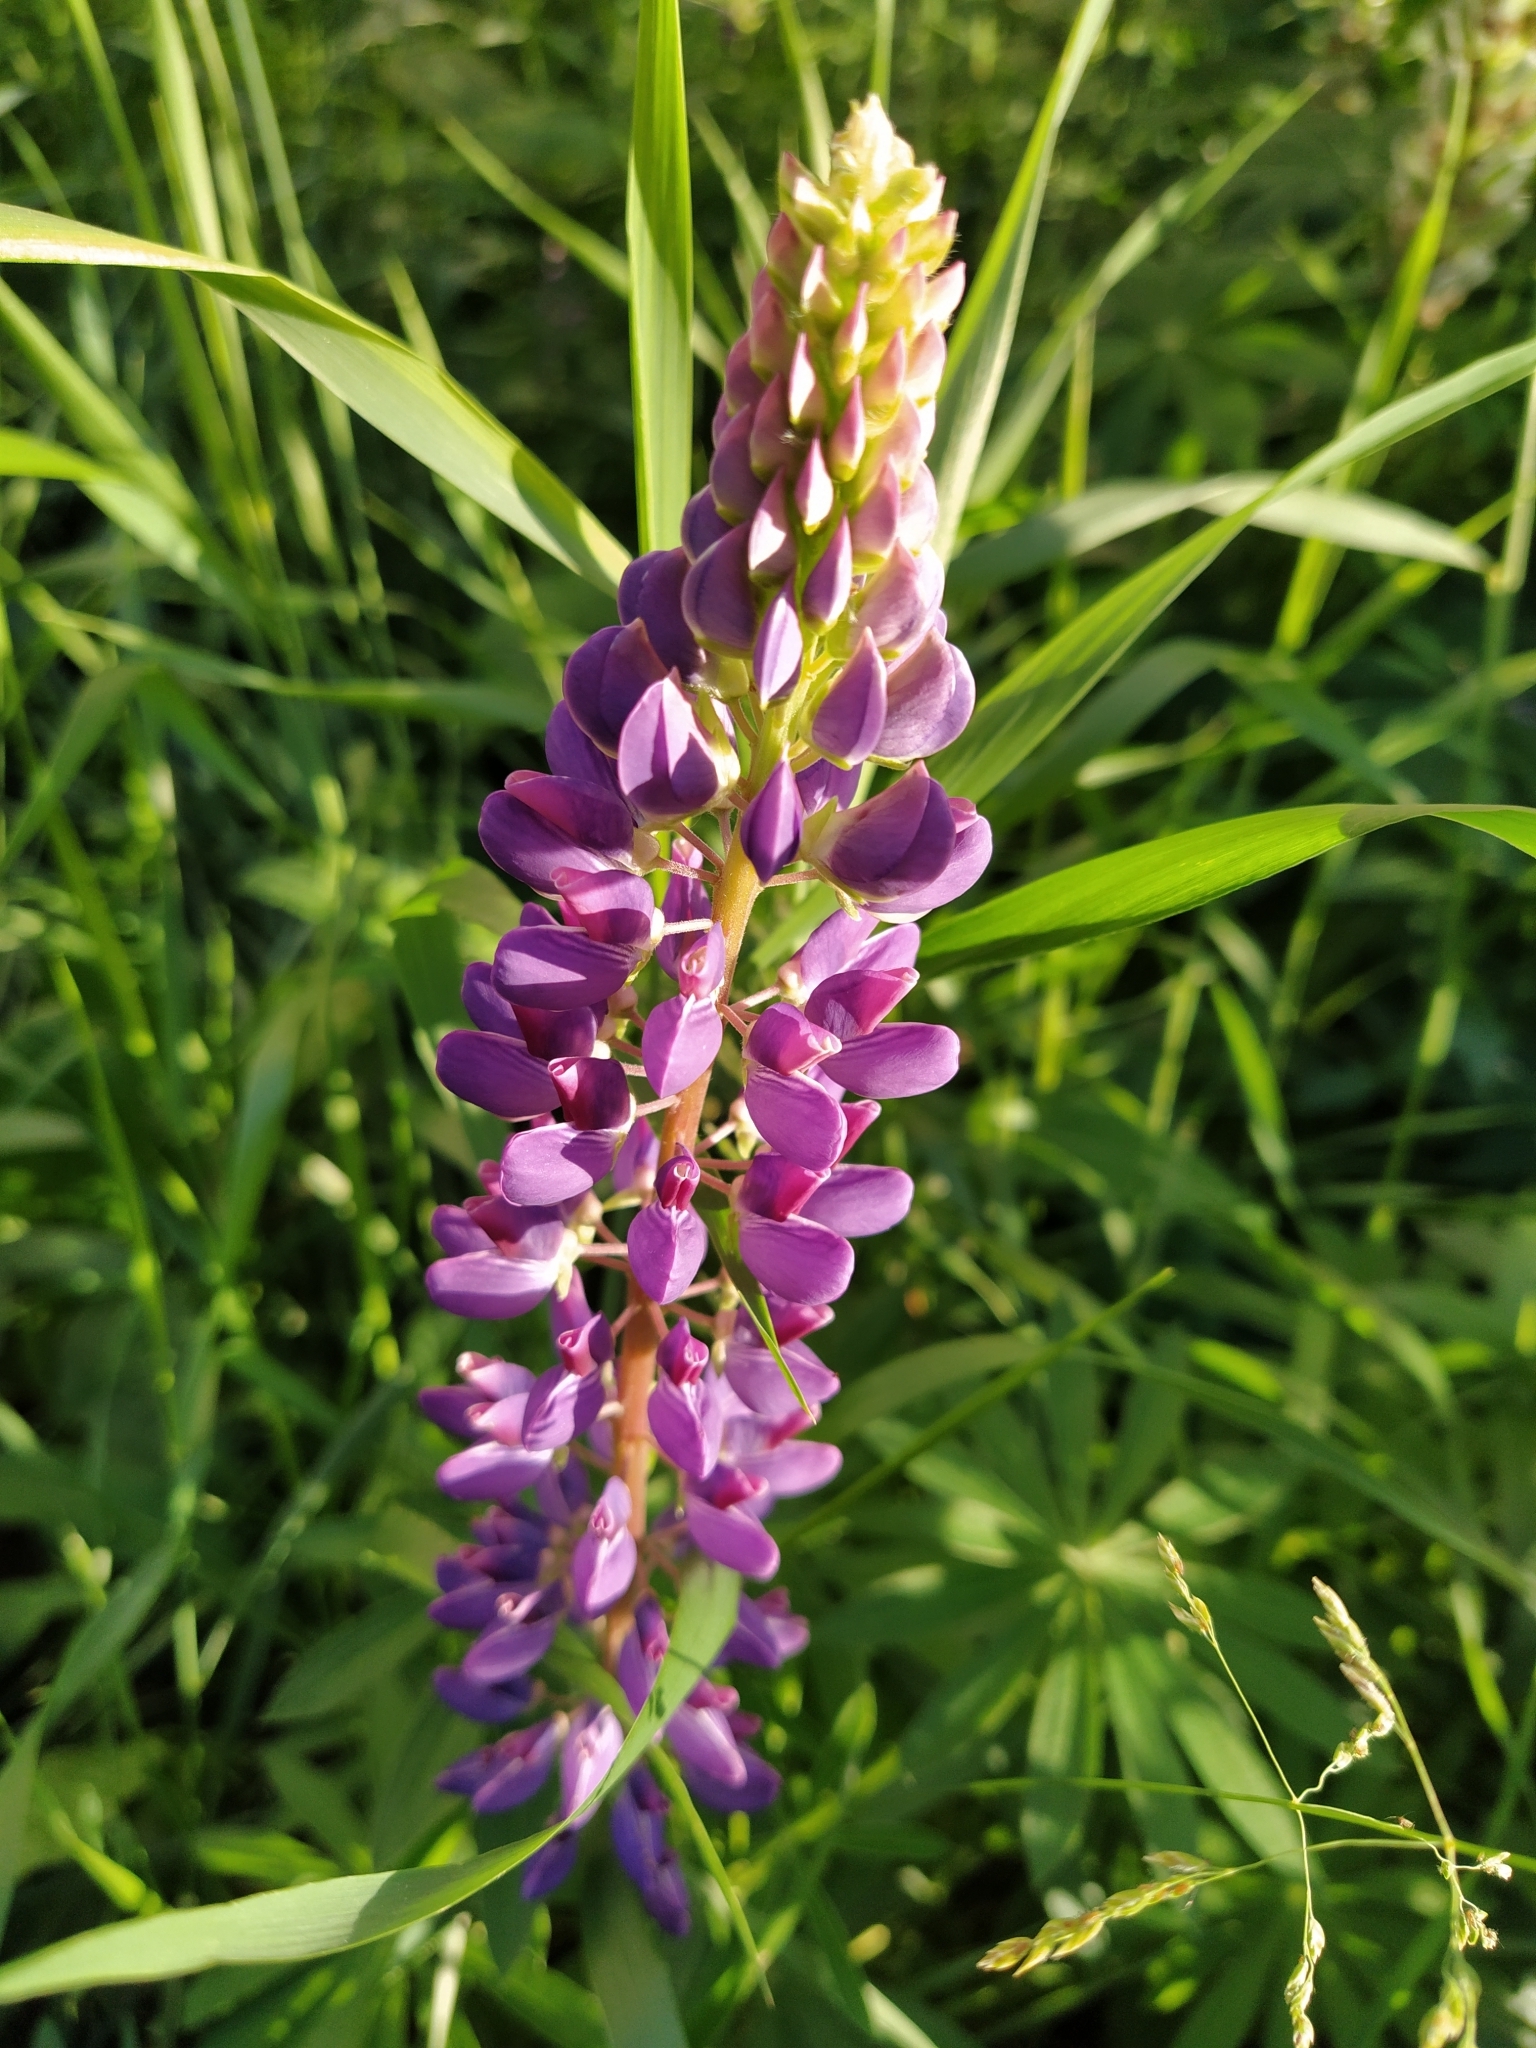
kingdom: Plantae
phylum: Tracheophyta
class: Magnoliopsida
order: Fabales
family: Fabaceae
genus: Lupinus
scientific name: Lupinus polyphyllus
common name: Garden lupin
